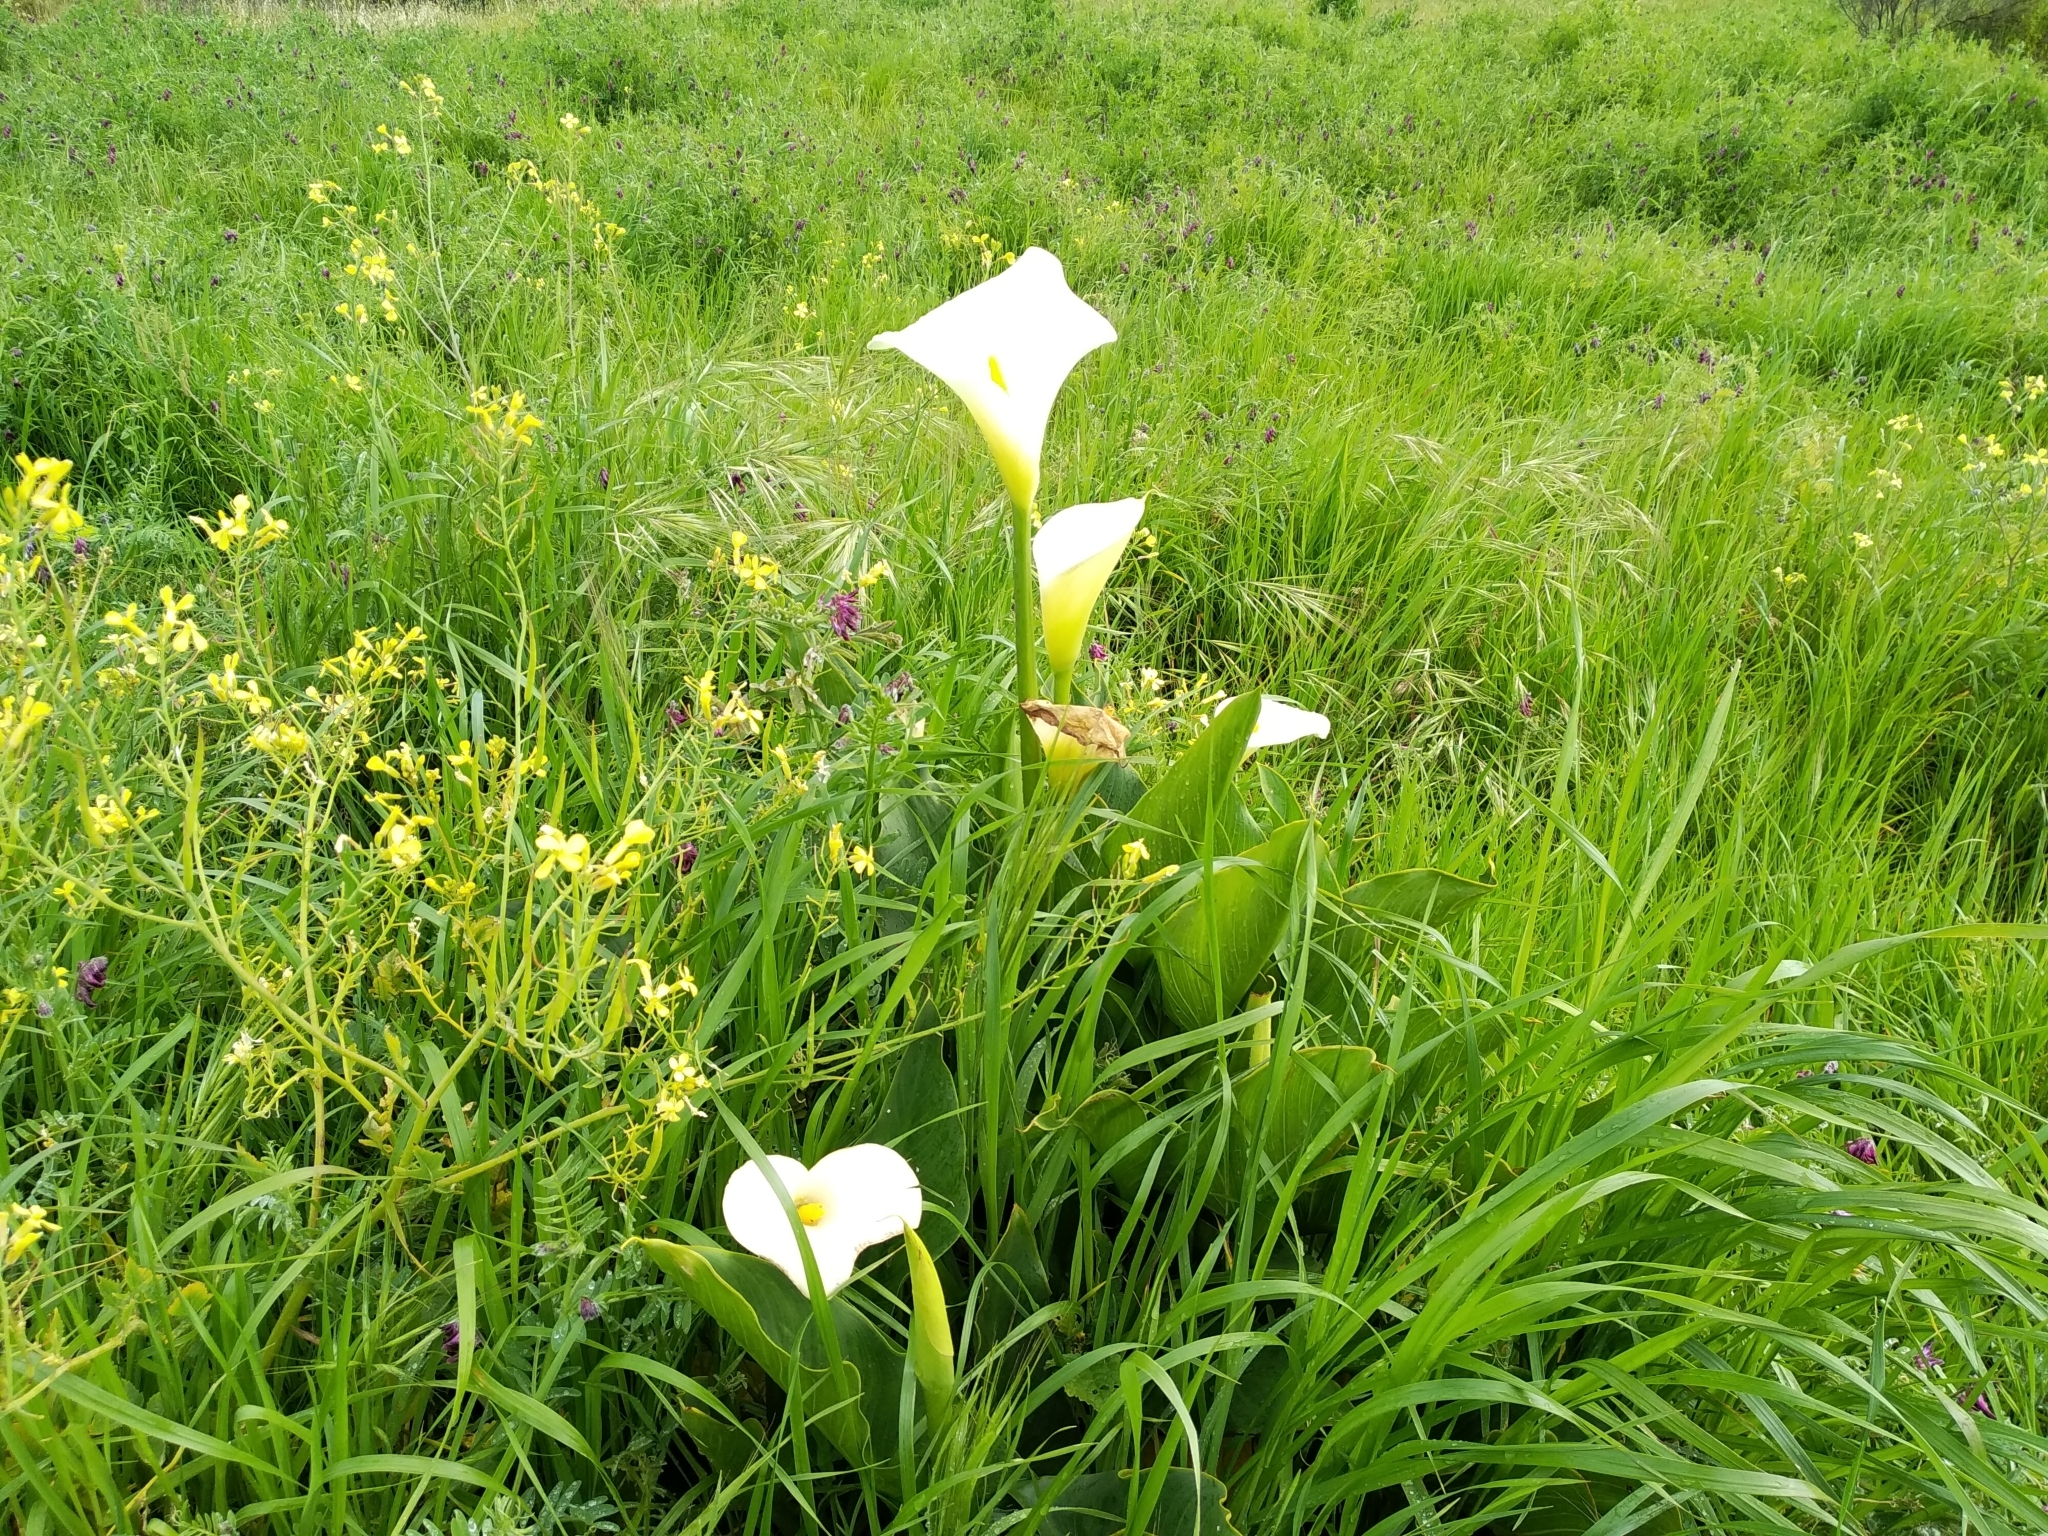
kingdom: Plantae
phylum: Tracheophyta
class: Liliopsida
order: Alismatales
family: Araceae
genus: Zantedeschia
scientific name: Zantedeschia aethiopica
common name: Altar-lily
